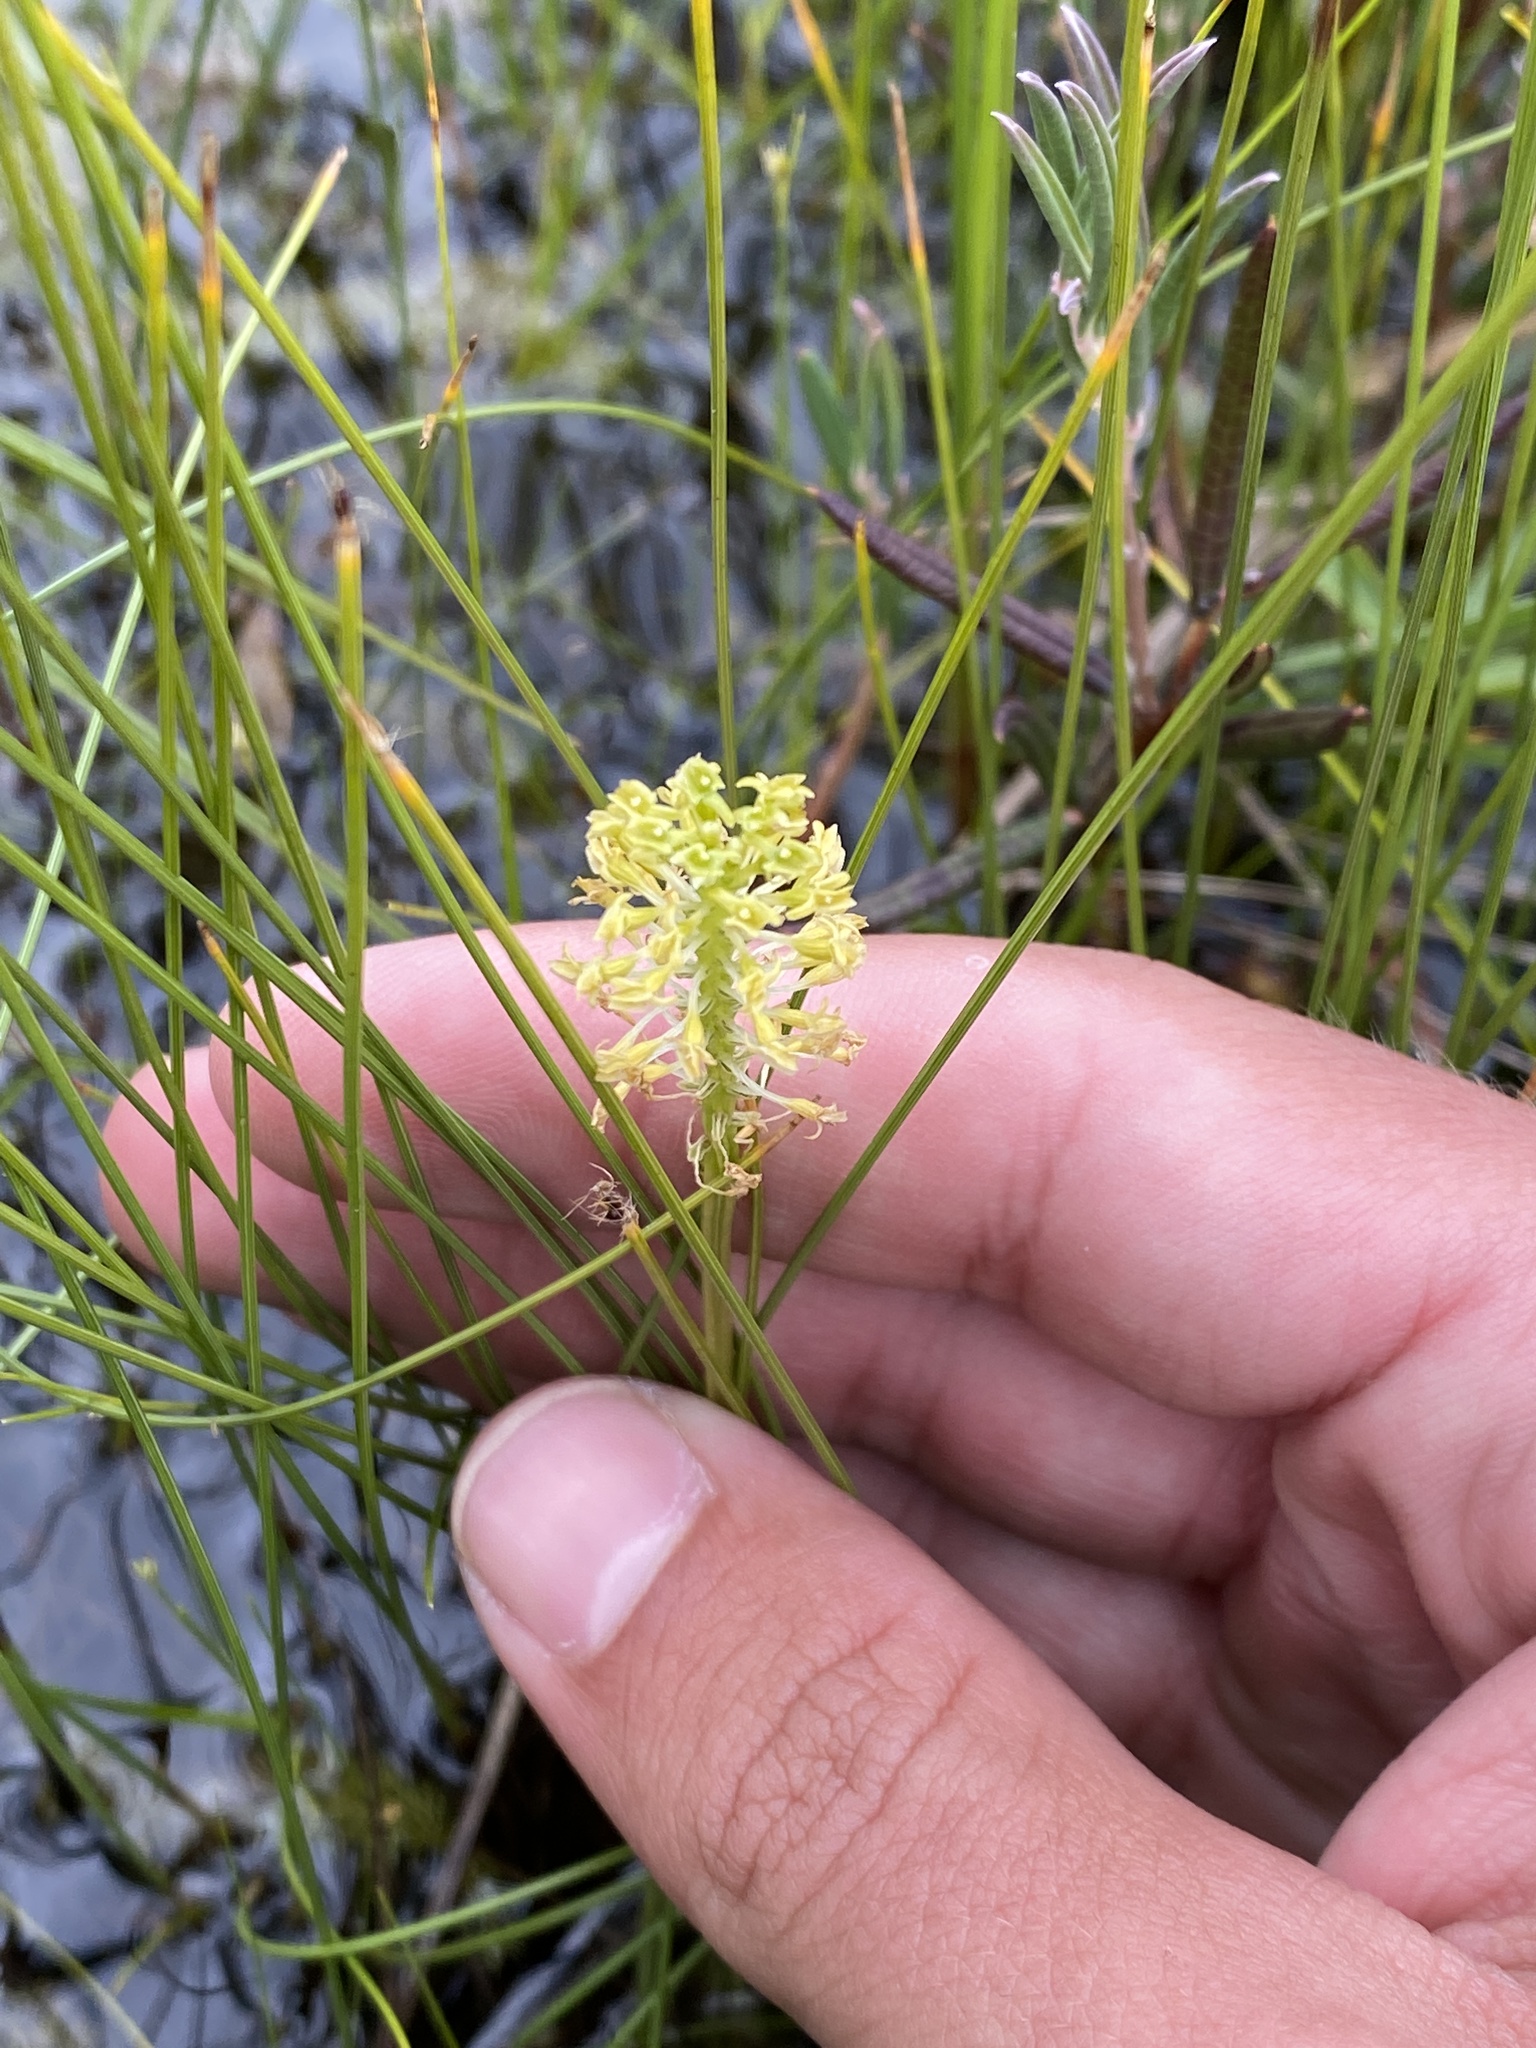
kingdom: Plantae
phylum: Tracheophyta
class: Liliopsida
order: Asparagales
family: Orchidaceae
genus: Malaxis
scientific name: Malaxis unifolia
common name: Green adder's-mouth
